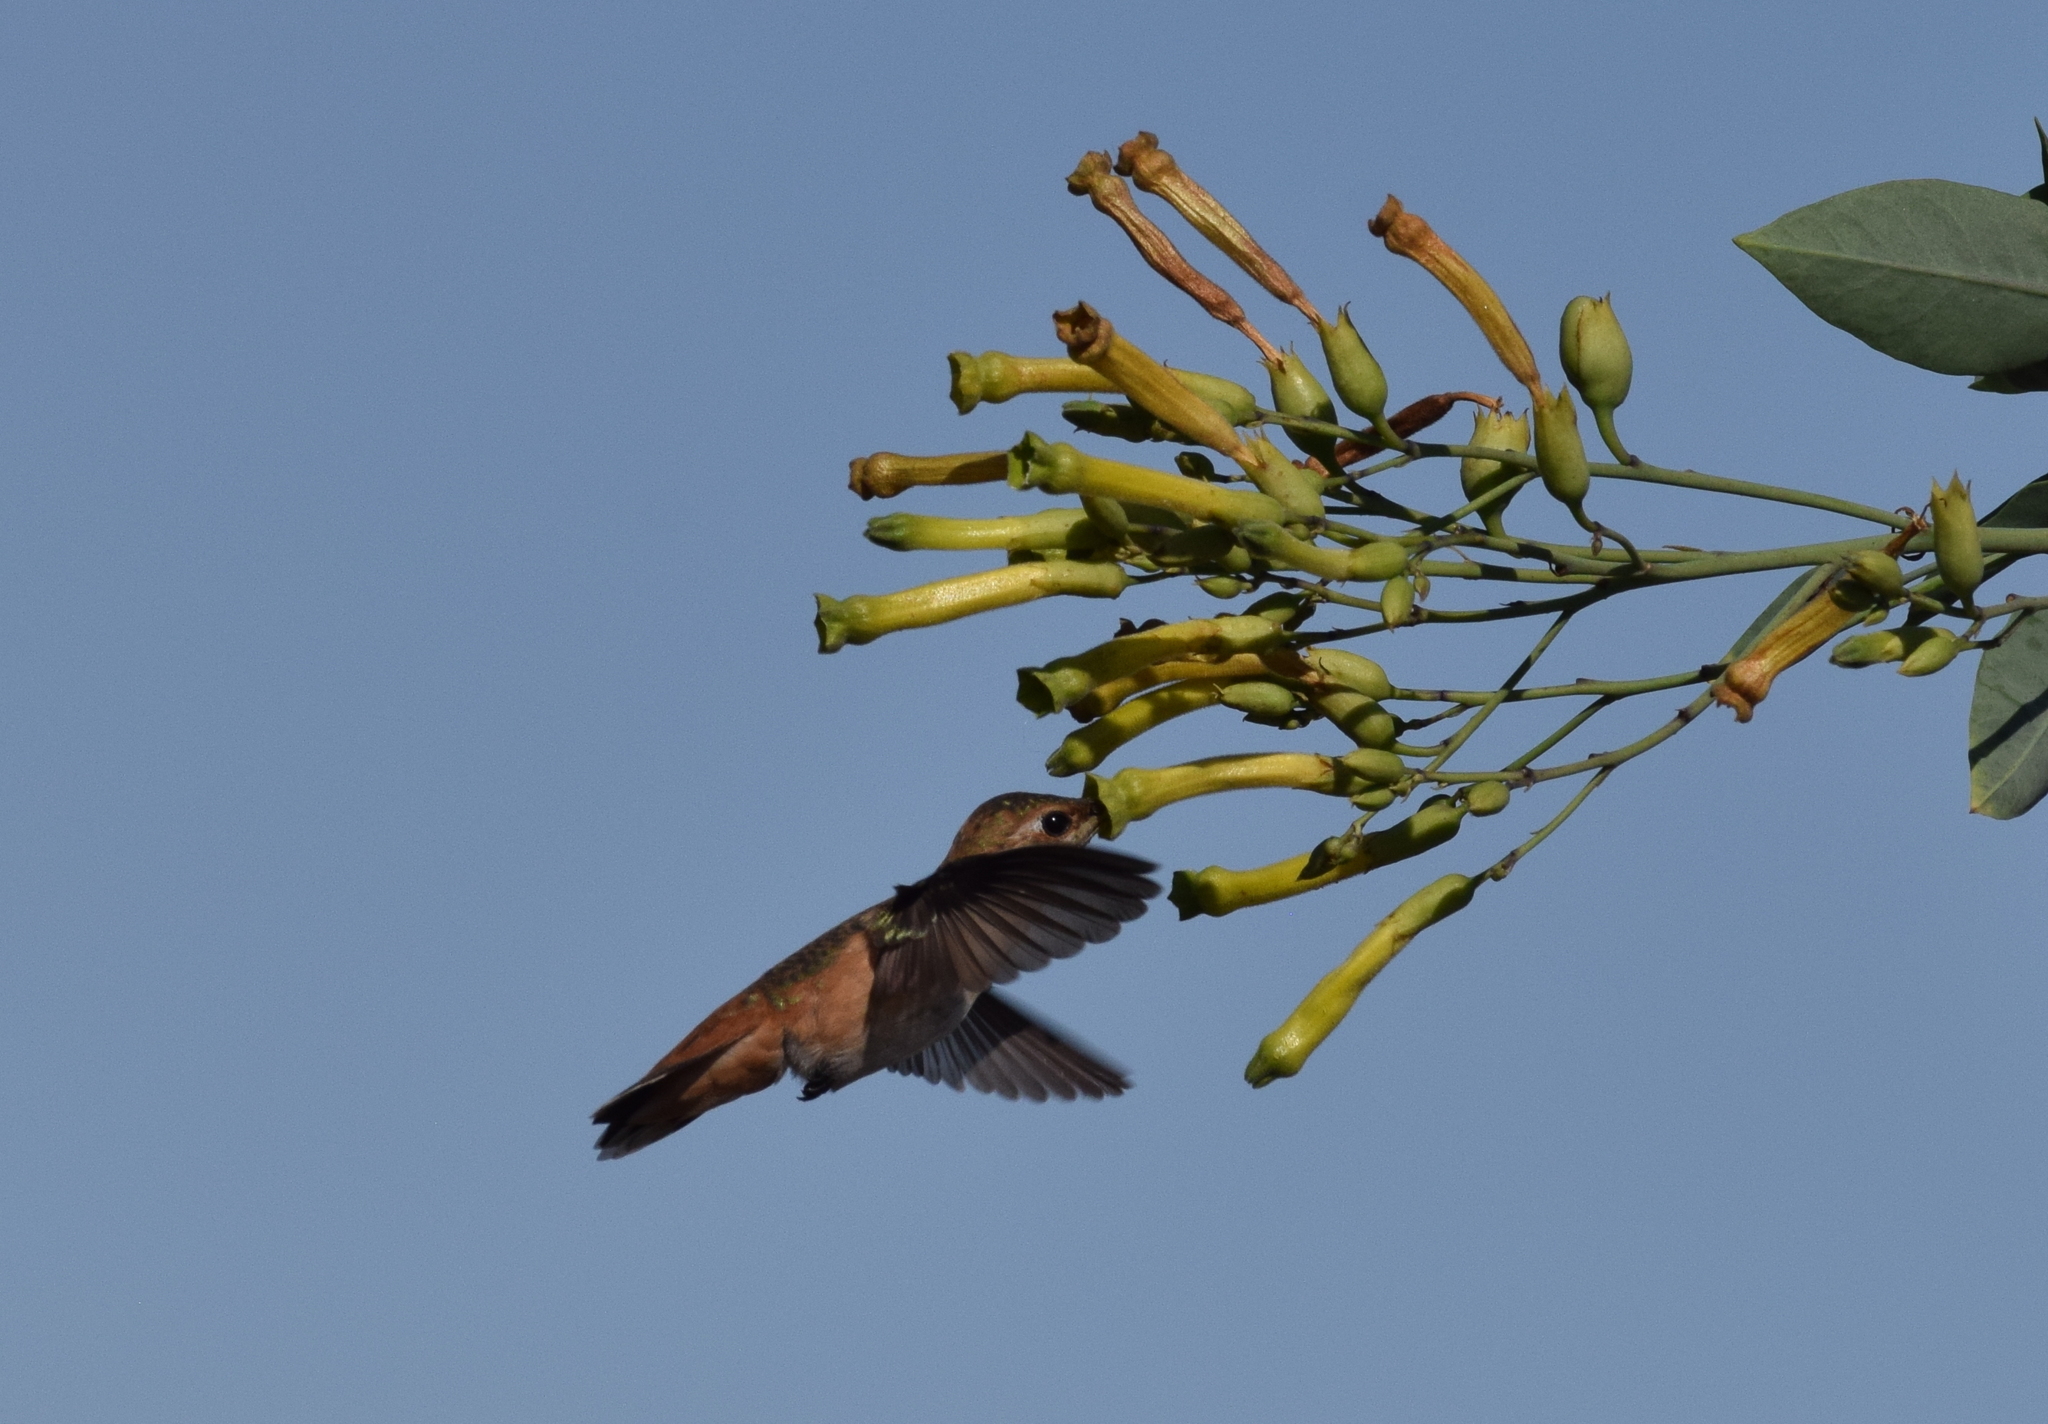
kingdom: Animalia
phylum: Chordata
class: Aves
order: Apodiformes
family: Trochilidae
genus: Selasphorus
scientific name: Selasphorus sasin
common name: Allen's hummingbird
